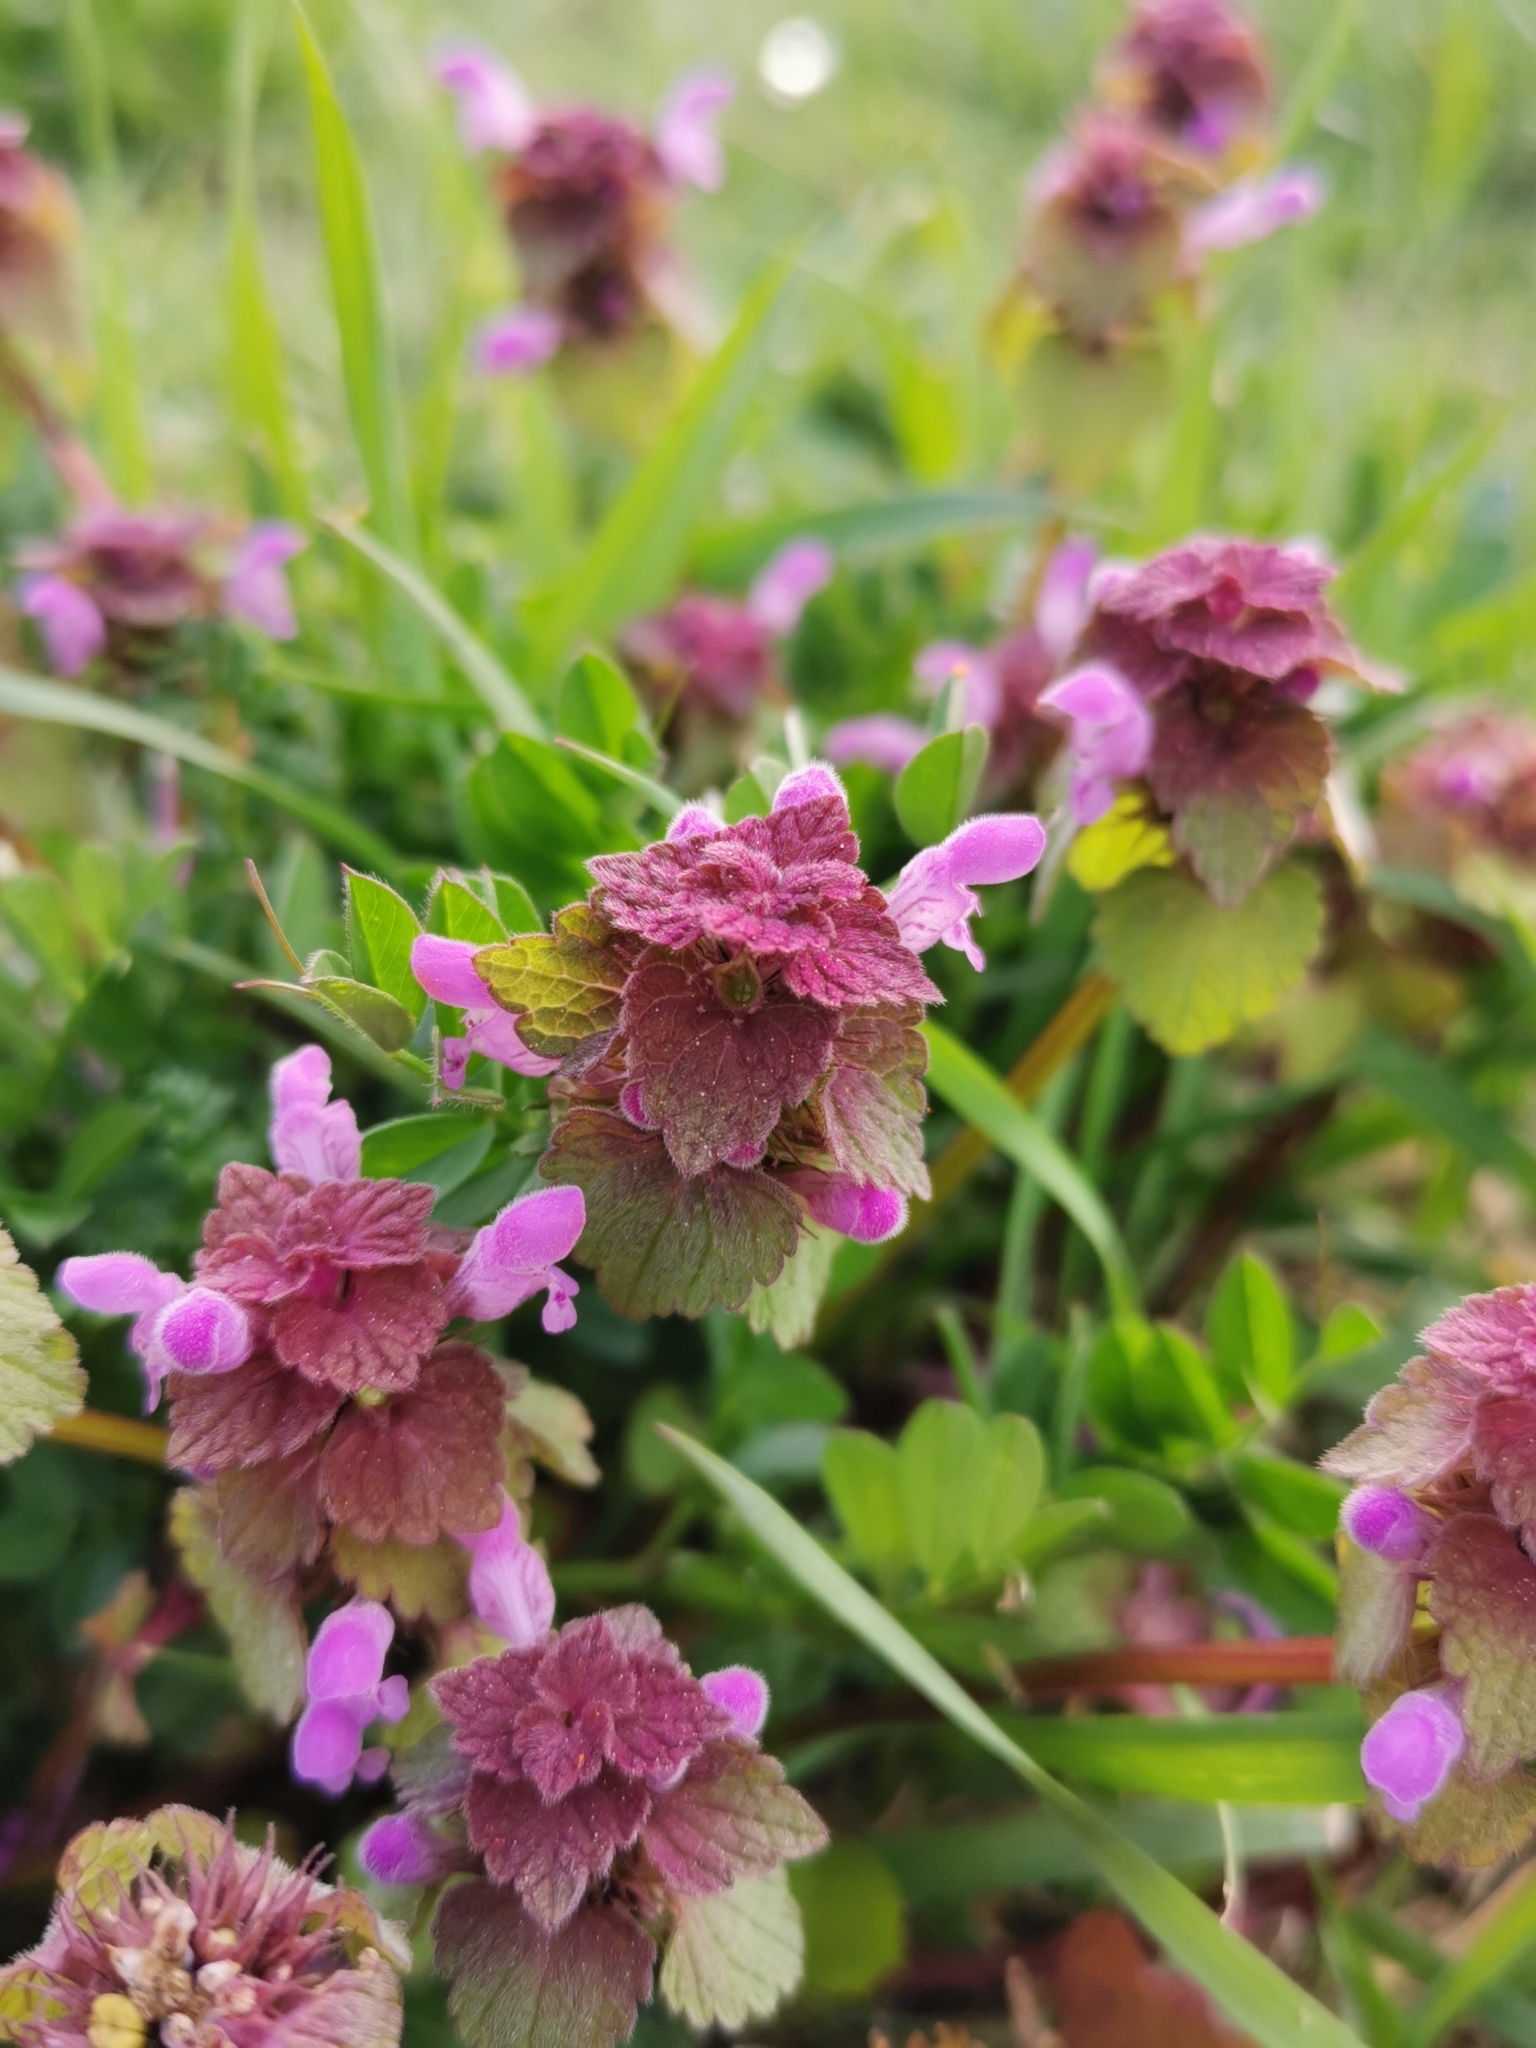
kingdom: Plantae
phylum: Tracheophyta
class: Magnoliopsida
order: Lamiales
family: Lamiaceae
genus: Lamium
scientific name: Lamium purpureum
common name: Red dead-nettle
